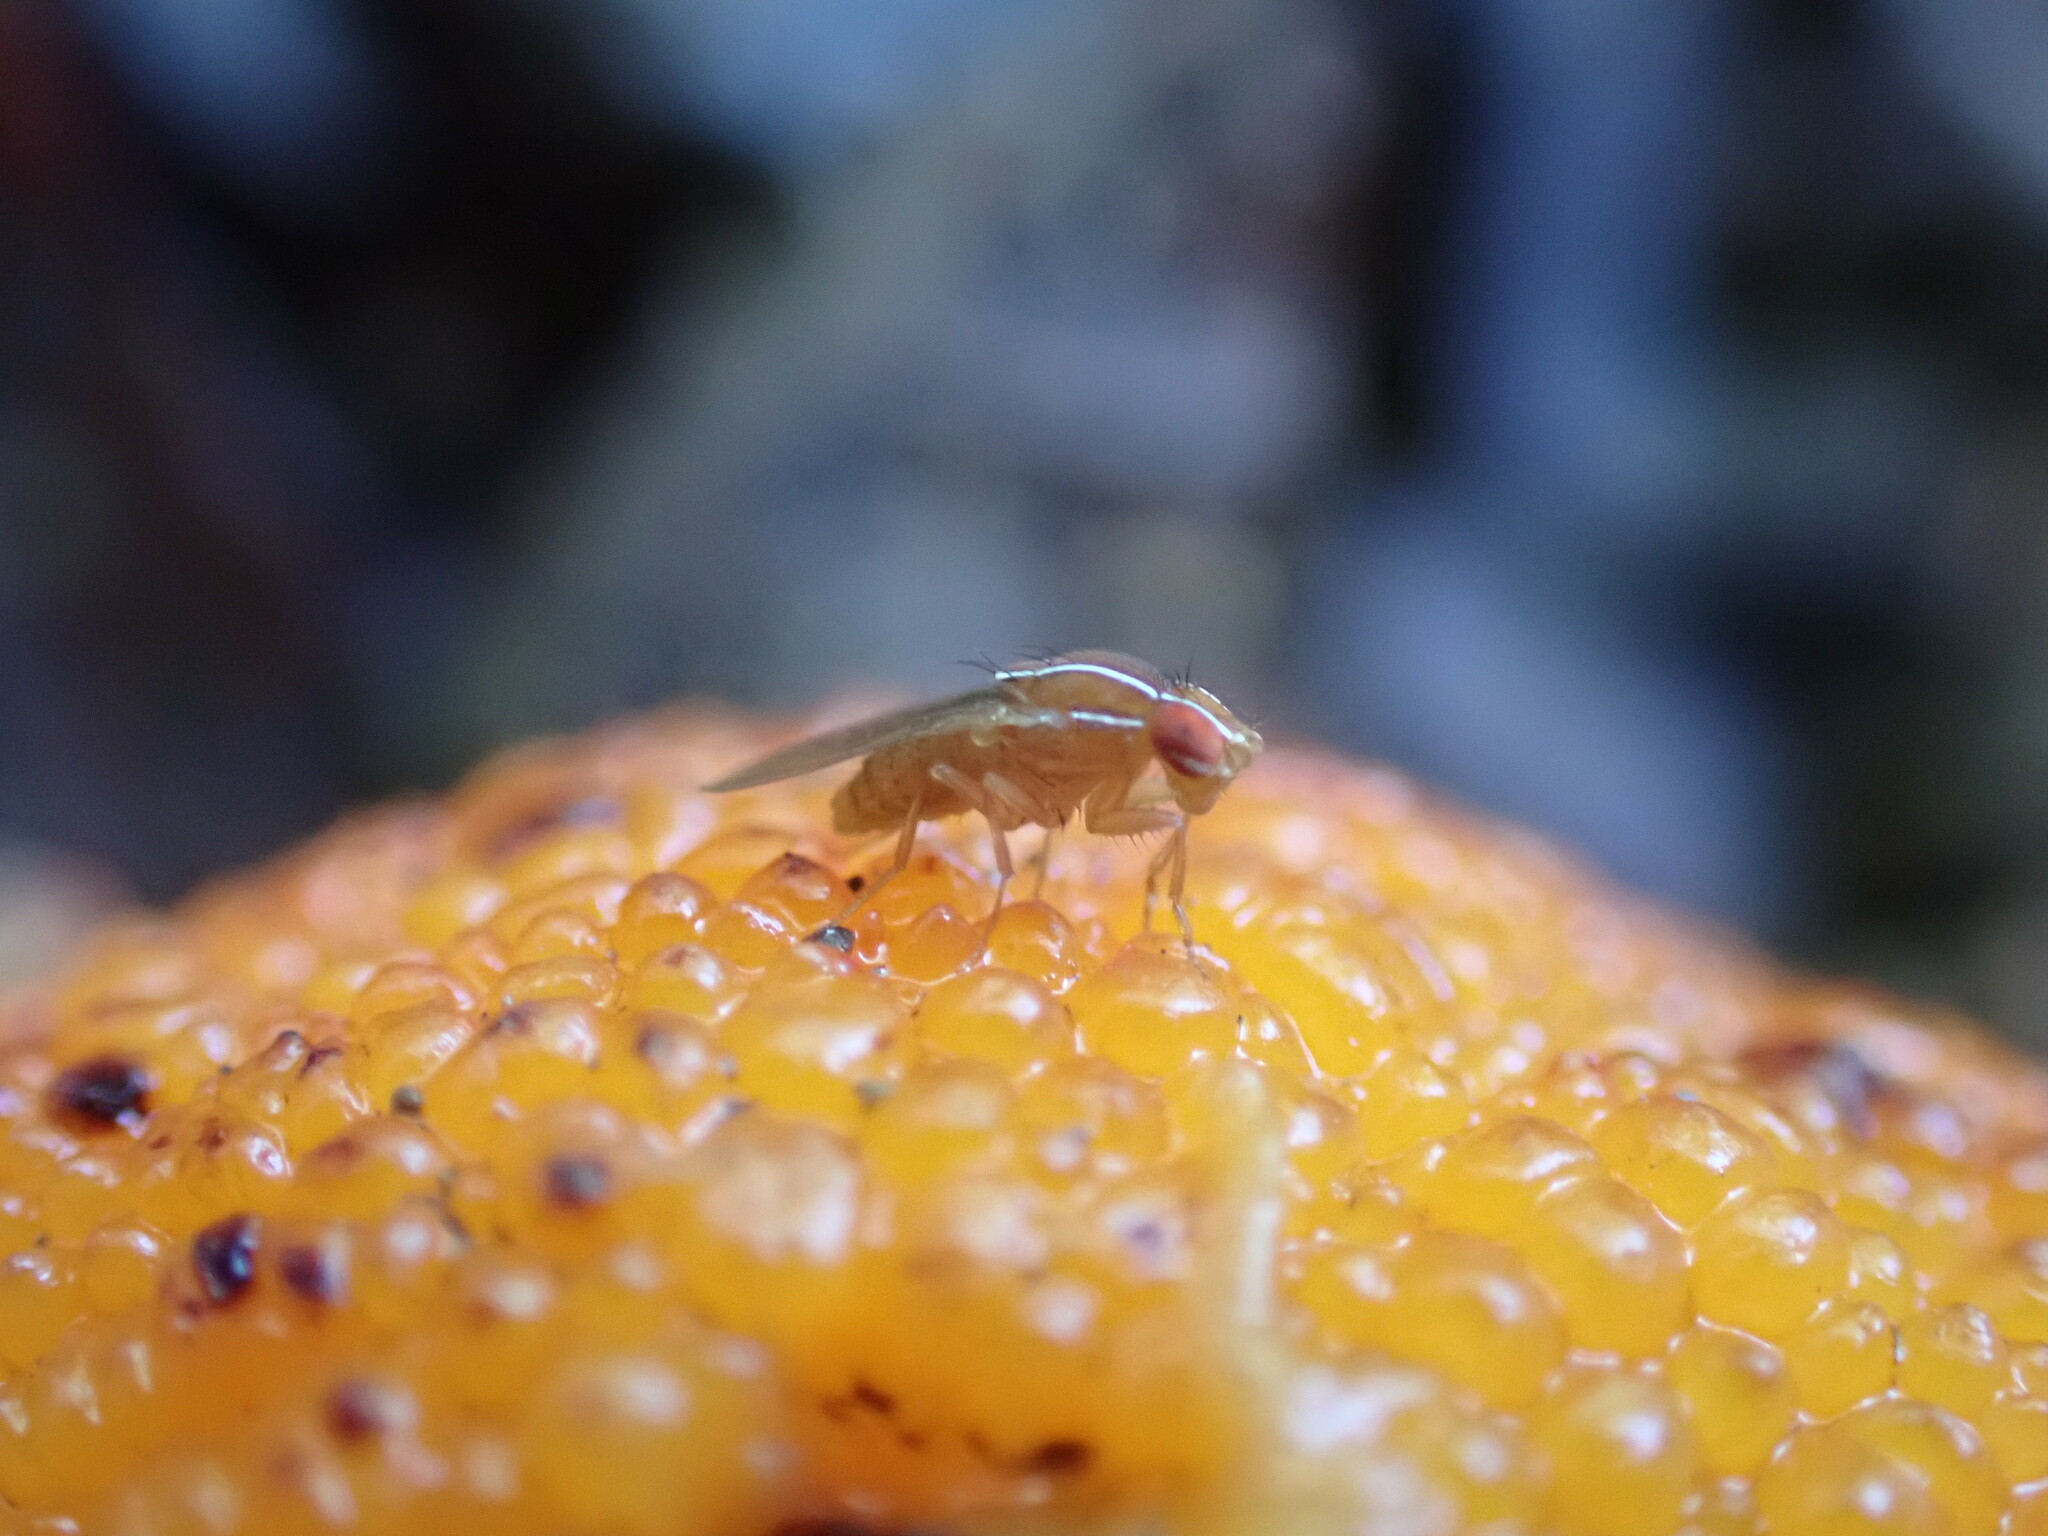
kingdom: Animalia
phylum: Arthropoda
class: Insecta
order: Diptera
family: Drosophilidae
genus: Zaprionus
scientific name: Zaprionus indianus
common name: African fig fly
